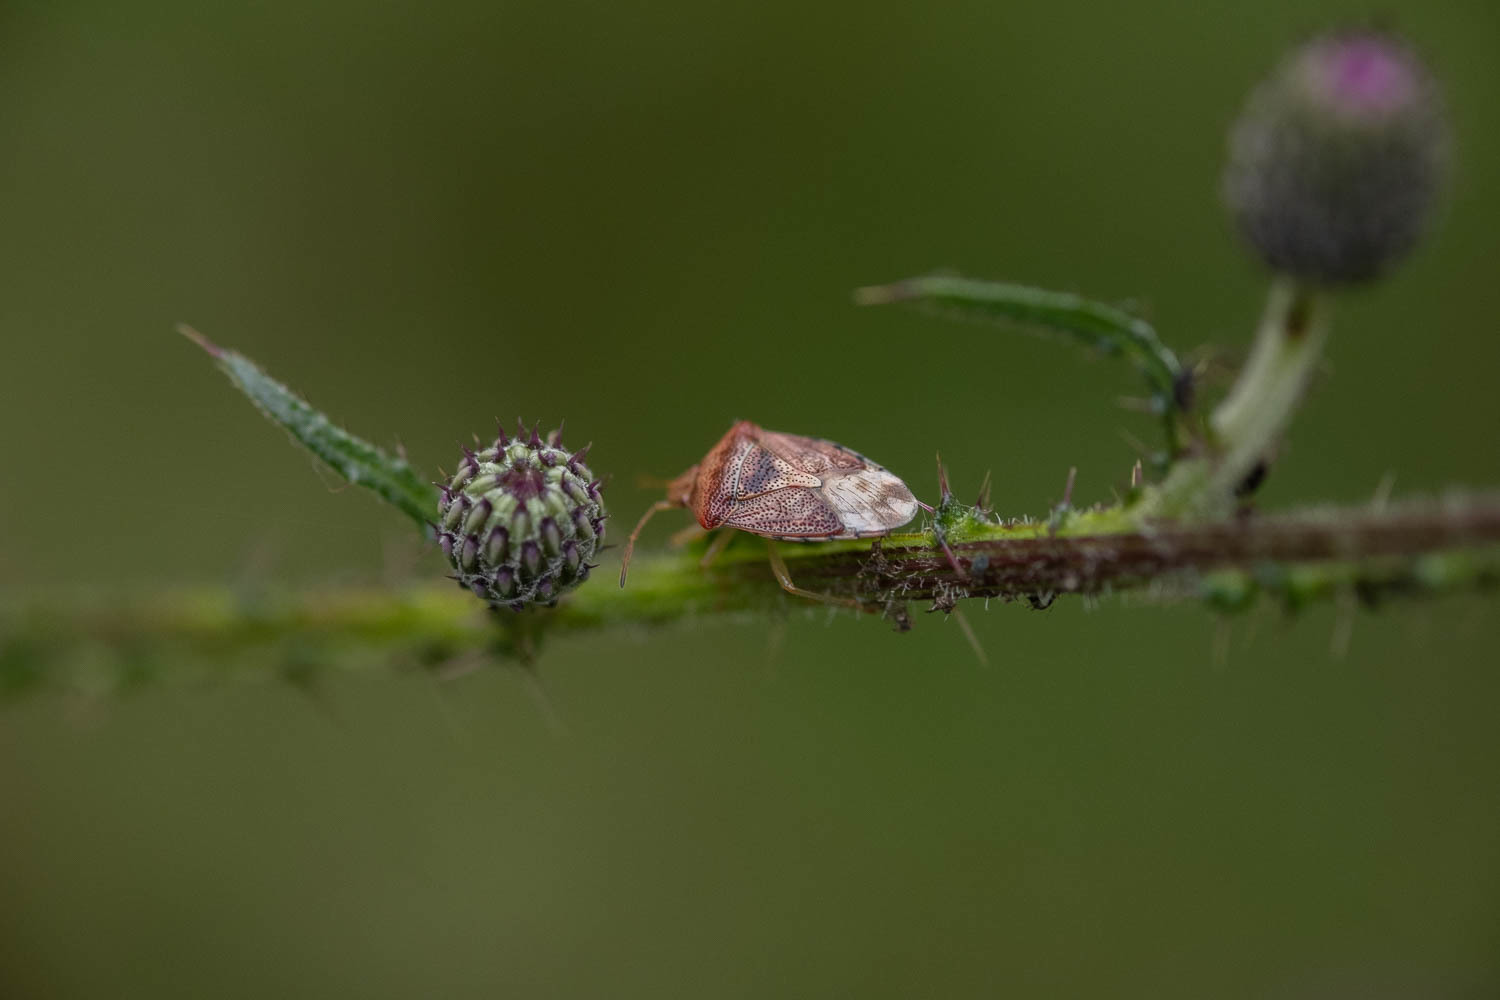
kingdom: Animalia
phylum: Arthropoda
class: Insecta
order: Hemiptera
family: Acanthosomatidae
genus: Elasmucha
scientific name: Elasmucha grisea
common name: Parent bug
